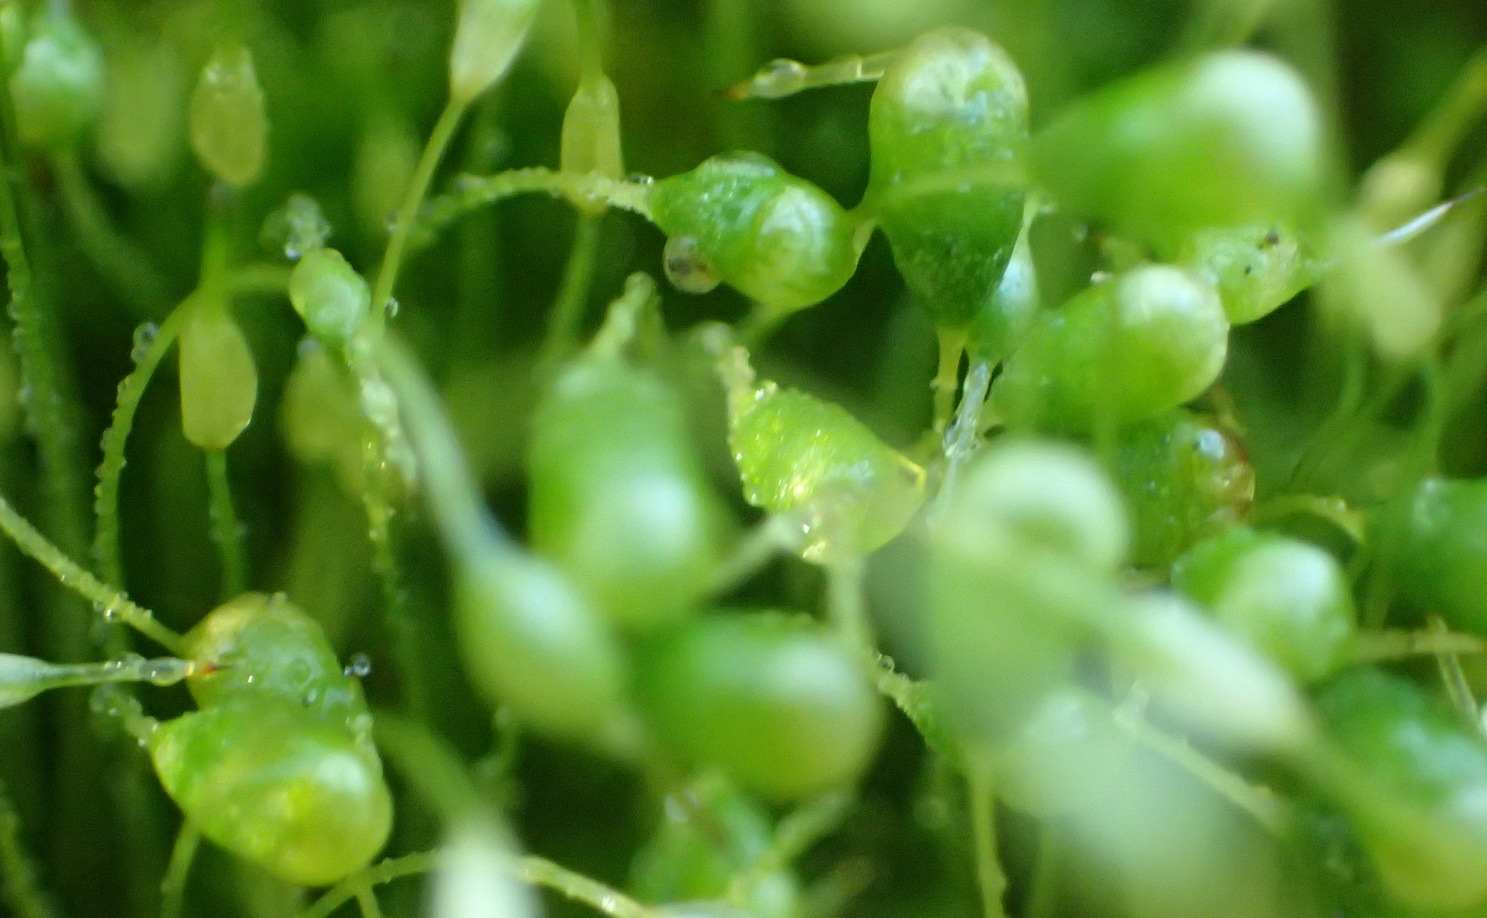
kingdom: Plantae
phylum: Bryophyta
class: Bryopsida
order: Funariales
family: Funariaceae
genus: Funaria
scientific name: Funaria hygrometrica
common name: Common cord moss
